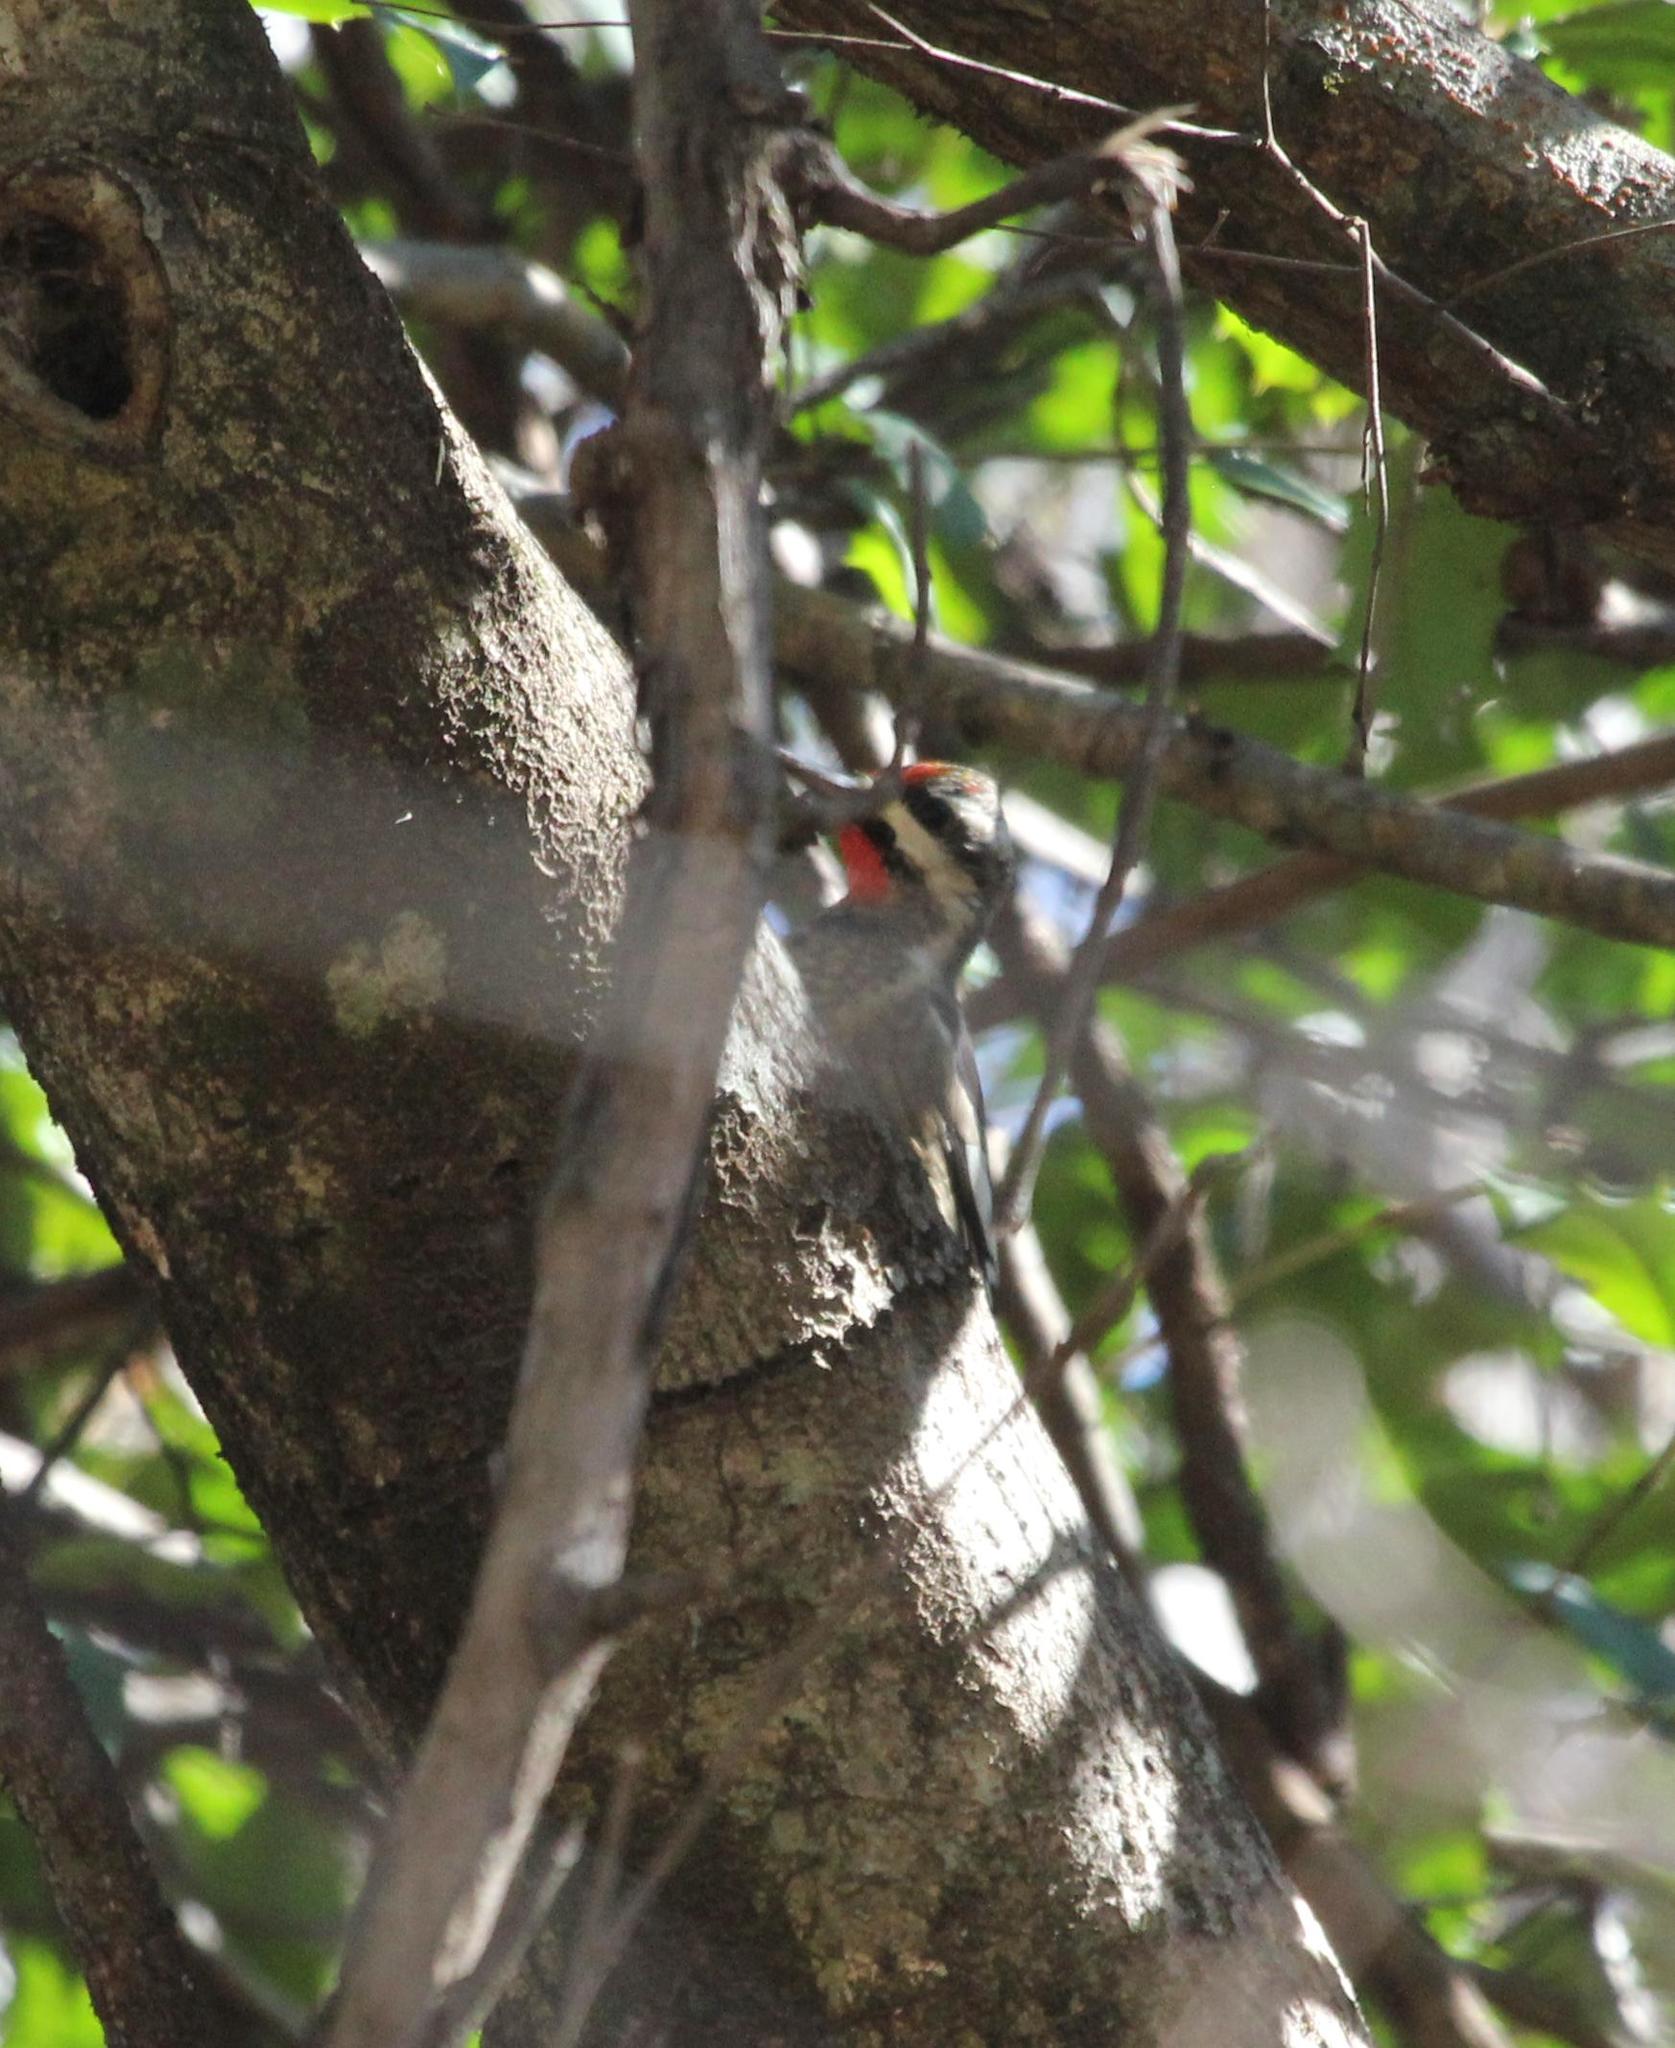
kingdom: Animalia
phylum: Chordata
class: Aves
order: Piciformes
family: Picidae
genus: Sphyrapicus
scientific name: Sphyrapicus varius
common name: Yellow-bellied sapsucker
